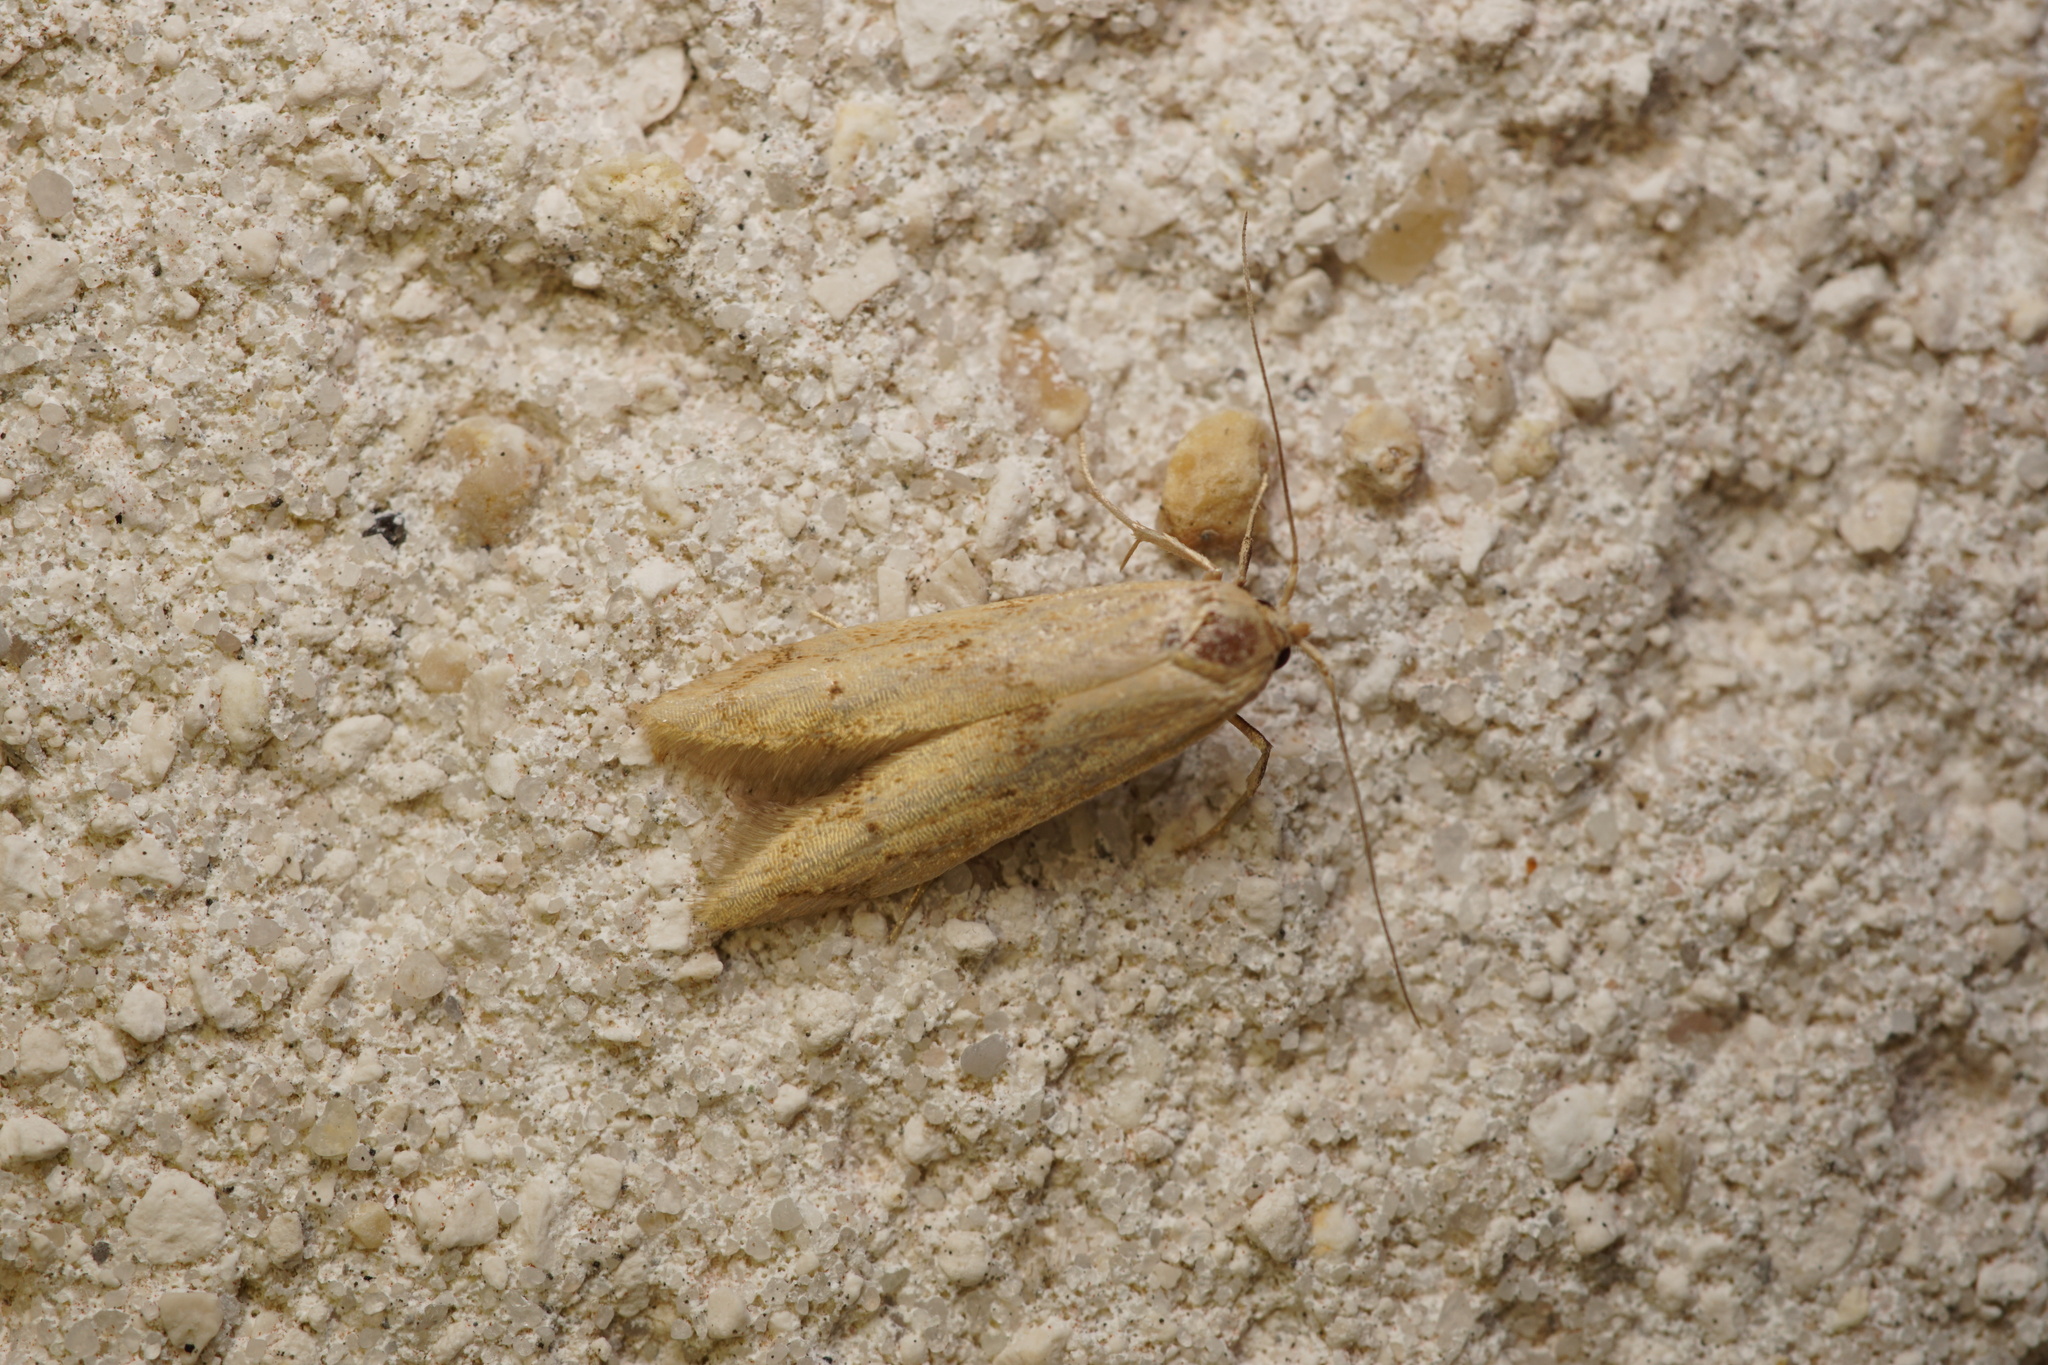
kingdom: Animalia
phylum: Arthropoda
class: Insecta
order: Lepidoptera
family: Blastobasidae
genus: Blastobasis
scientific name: Blastobasis lacticolella
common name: London dowd
